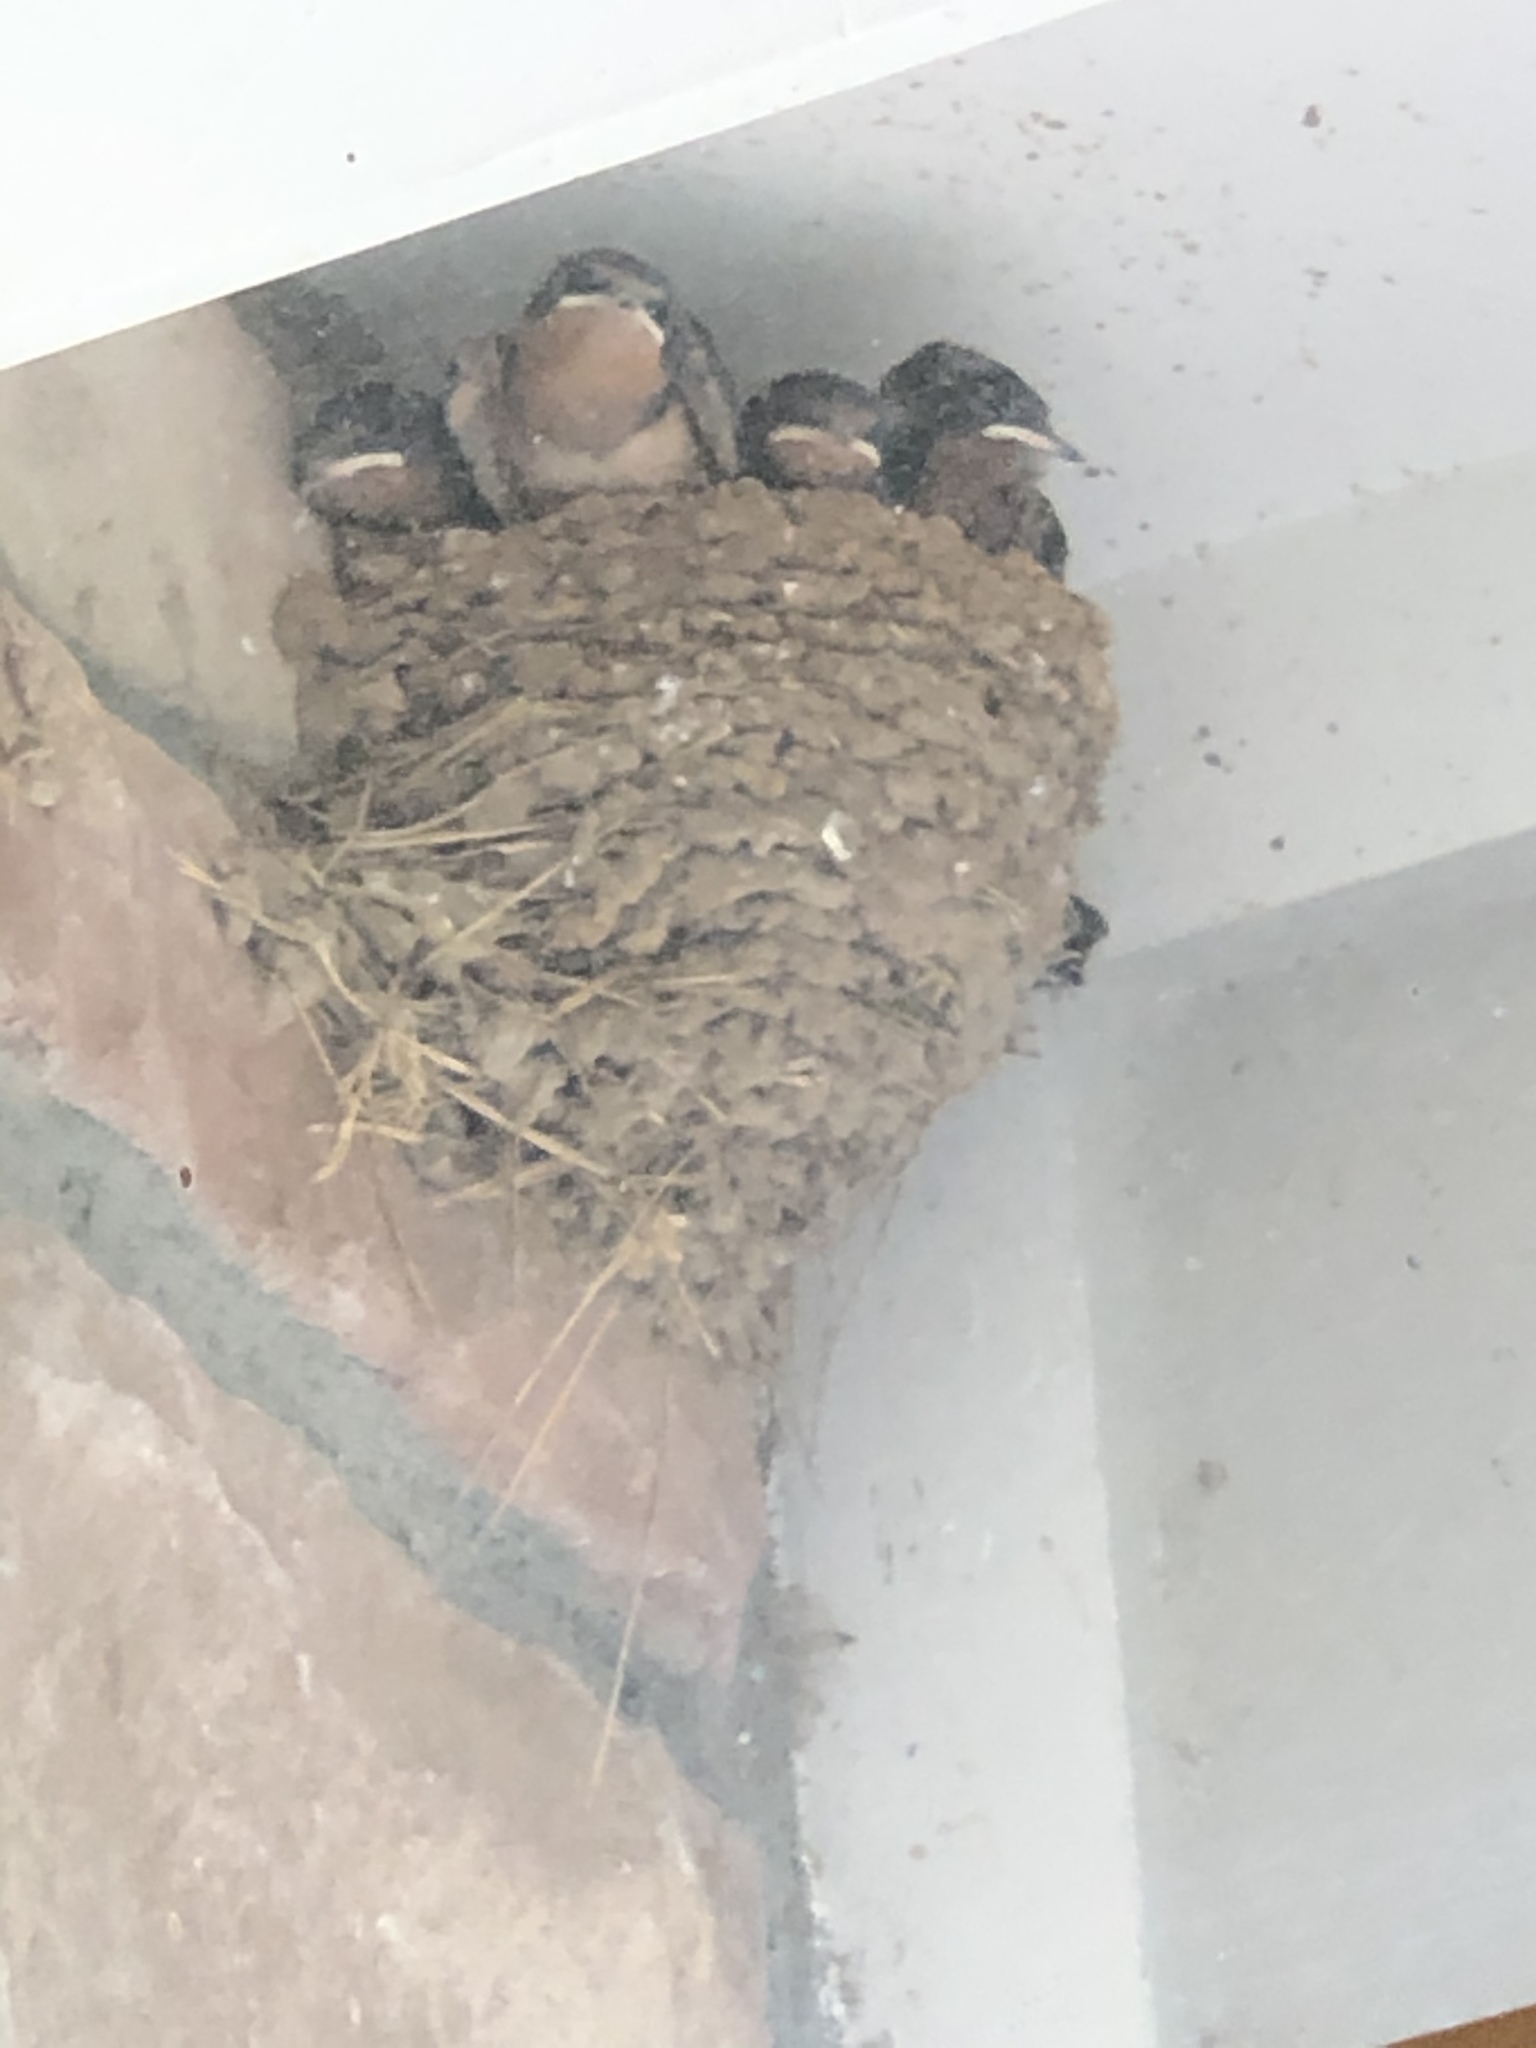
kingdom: Animalia
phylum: Chordata
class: Aves
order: Passeriformes
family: Hirundinidae
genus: Hirundo
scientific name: Hirundo rustica
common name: Barn swallow
